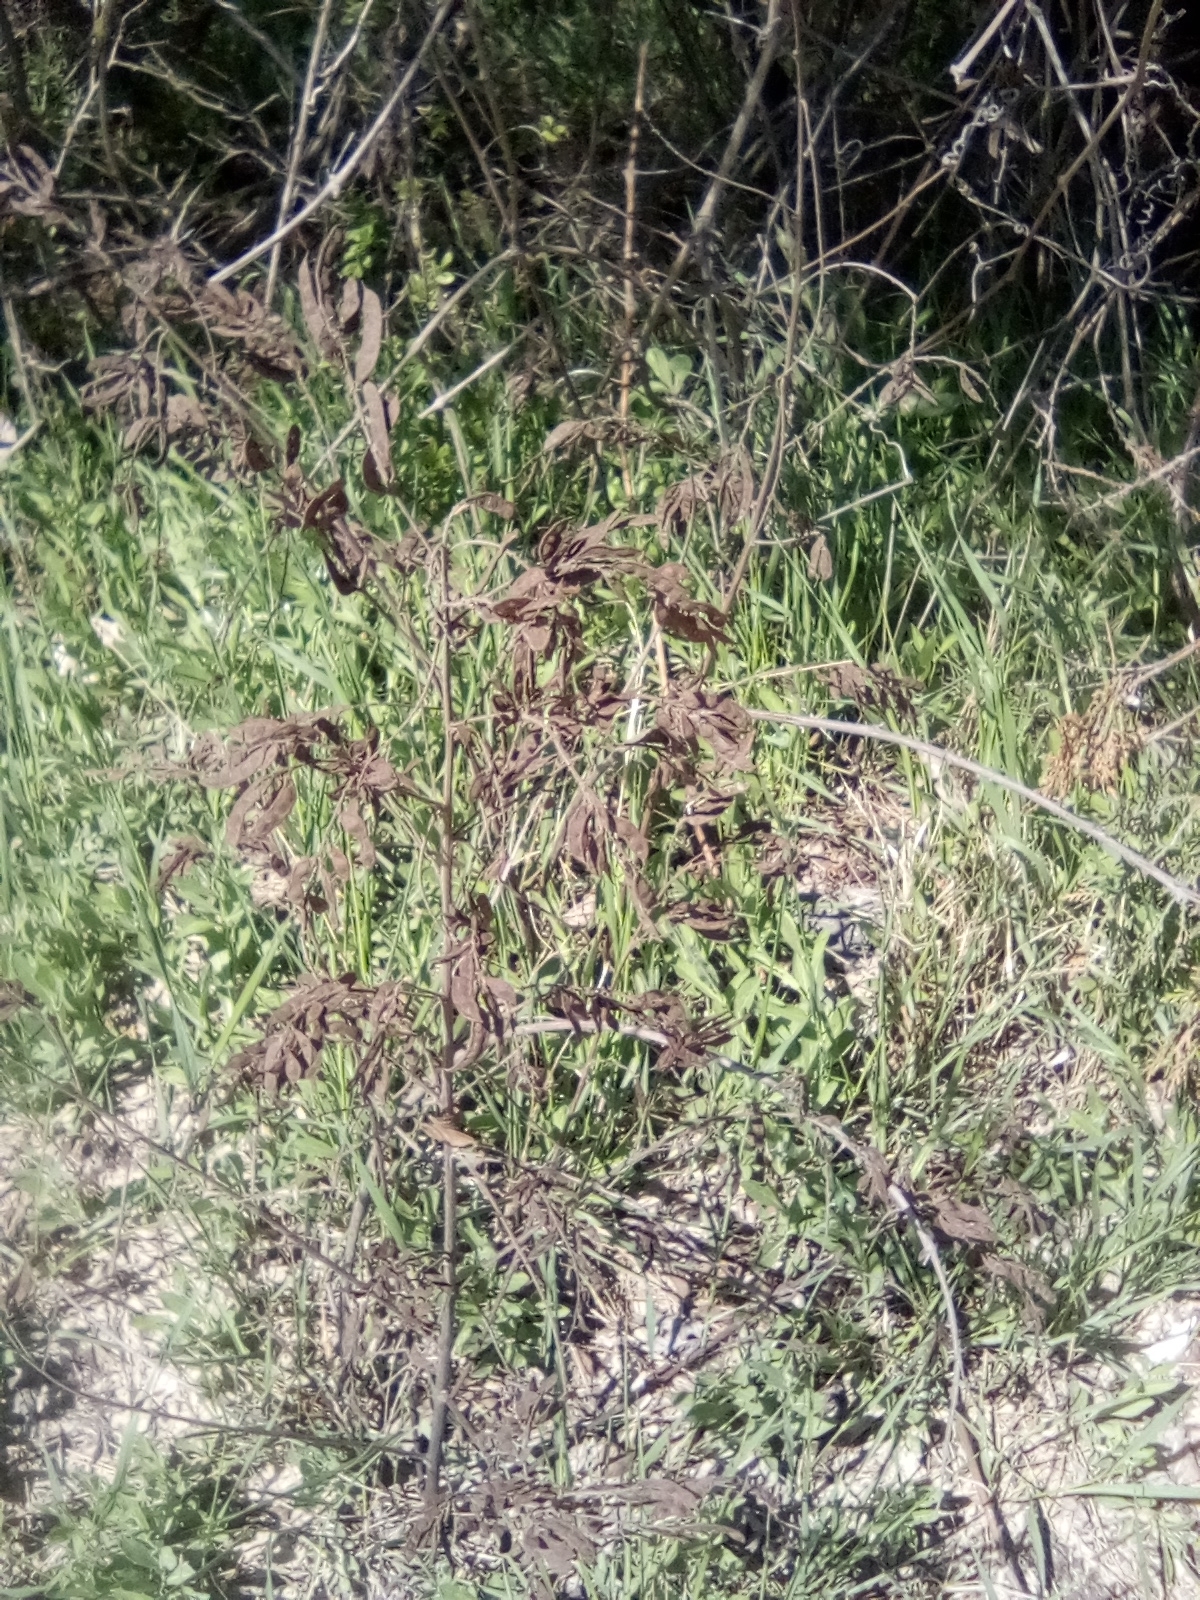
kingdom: Plantae
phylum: Tracheophyta
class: Magnoliopsida
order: Fabales
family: Fabaceae
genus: Glycyrrhiza
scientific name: Glycyrrhiza glabra
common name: Liquorice
